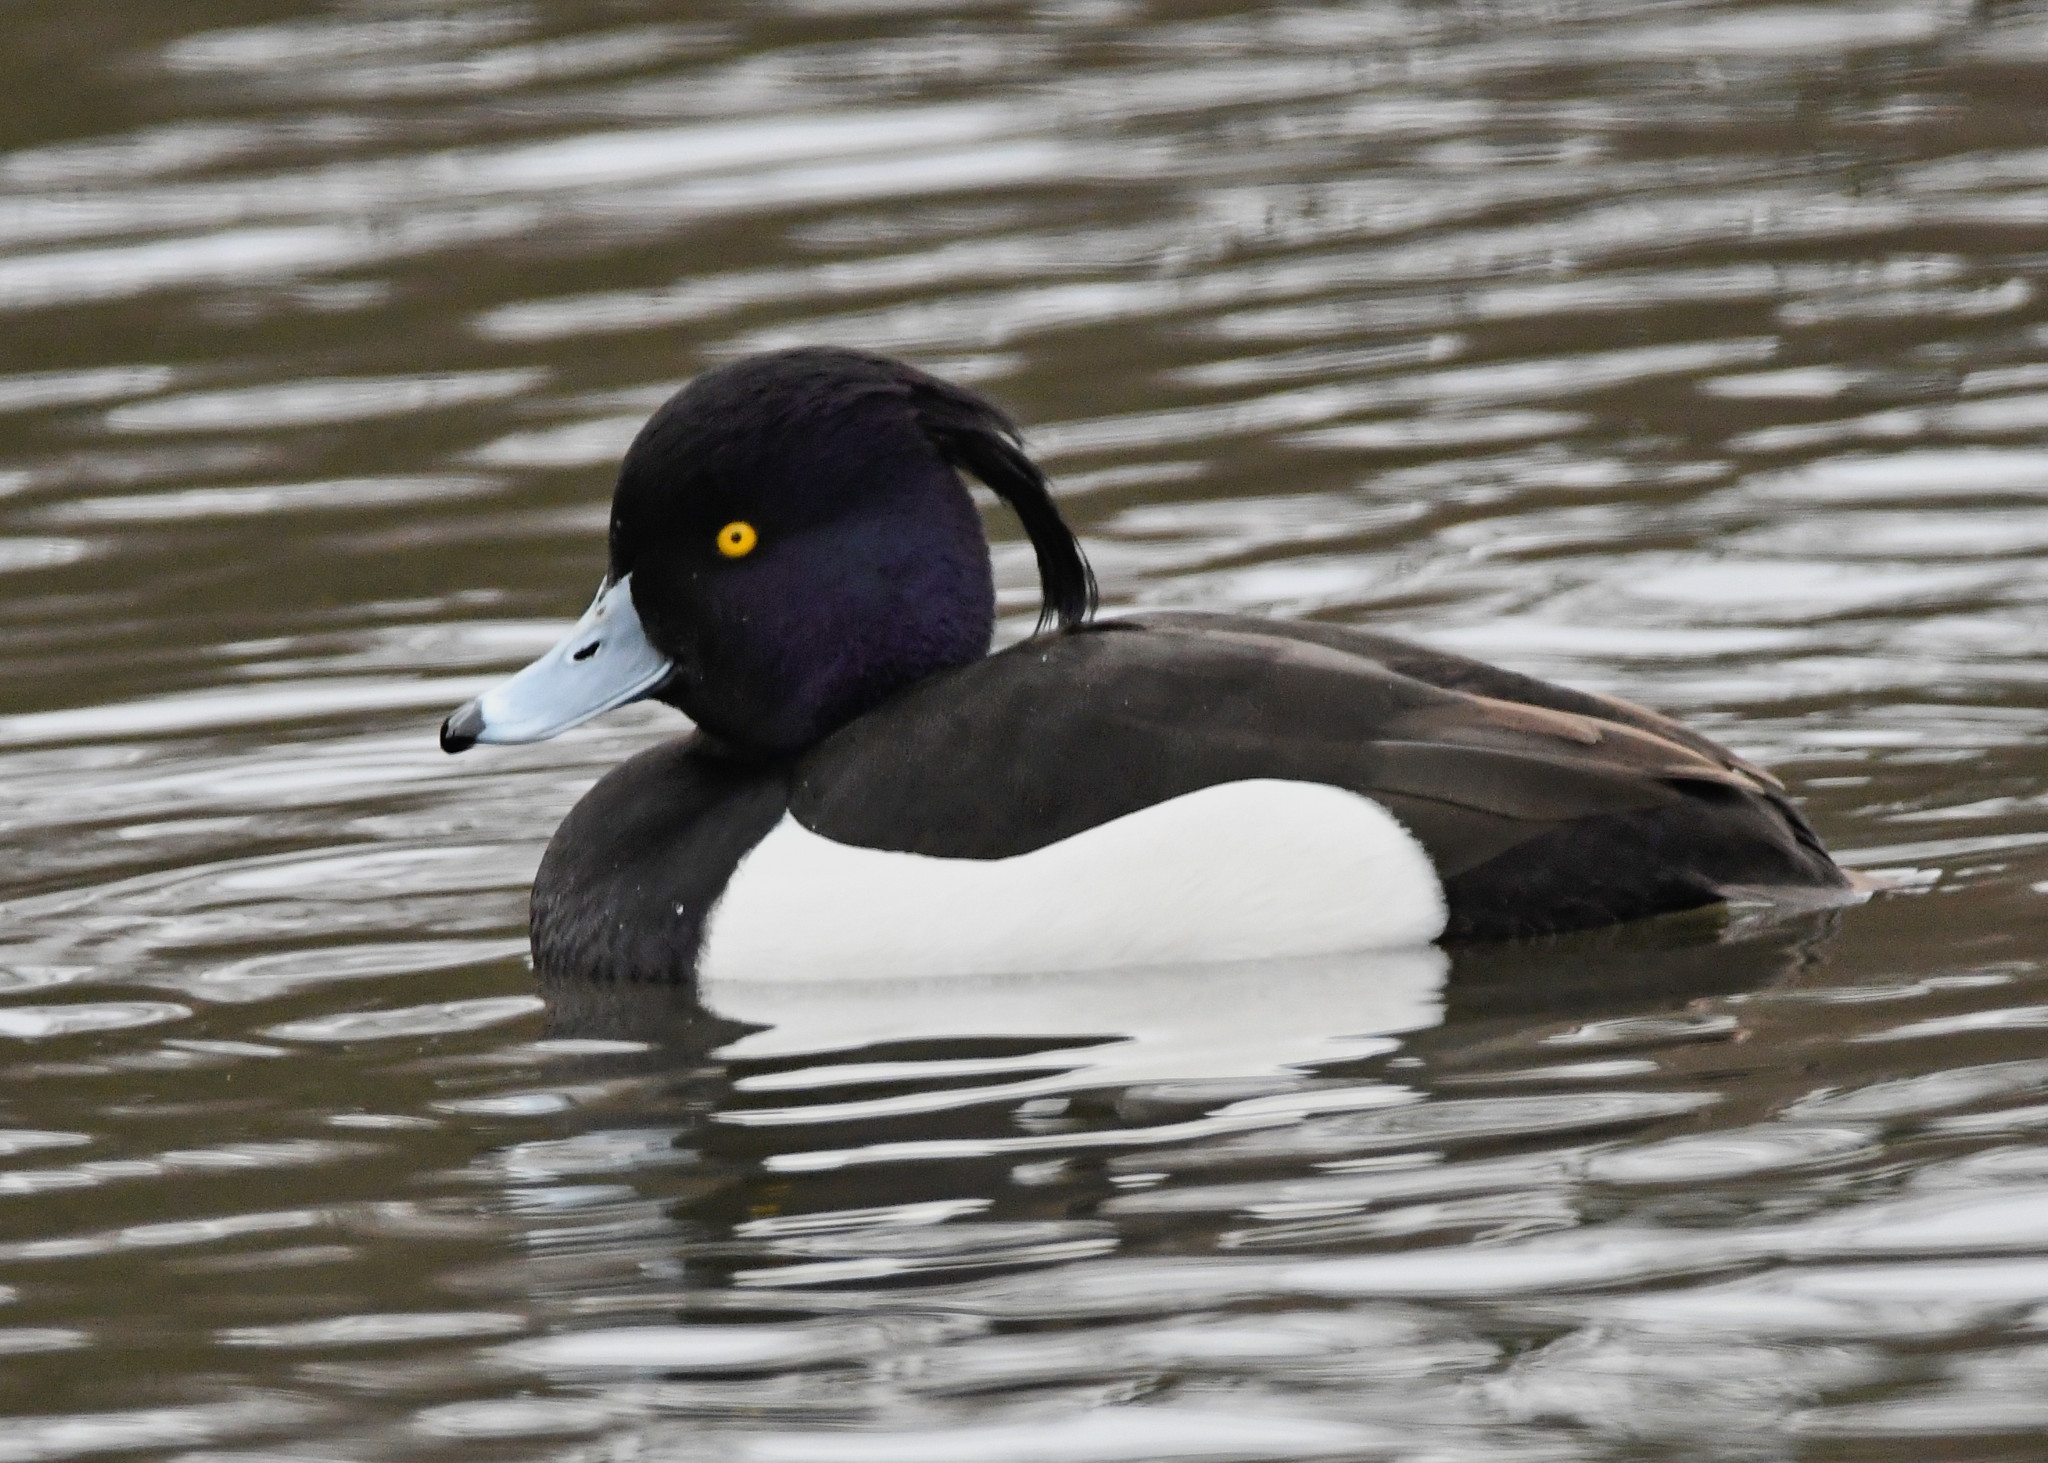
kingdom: Animalia
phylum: Chordata
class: Aves
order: Anseriformes
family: Anatidae
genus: Aythya
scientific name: Aythya fuligula
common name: Tufted duck
